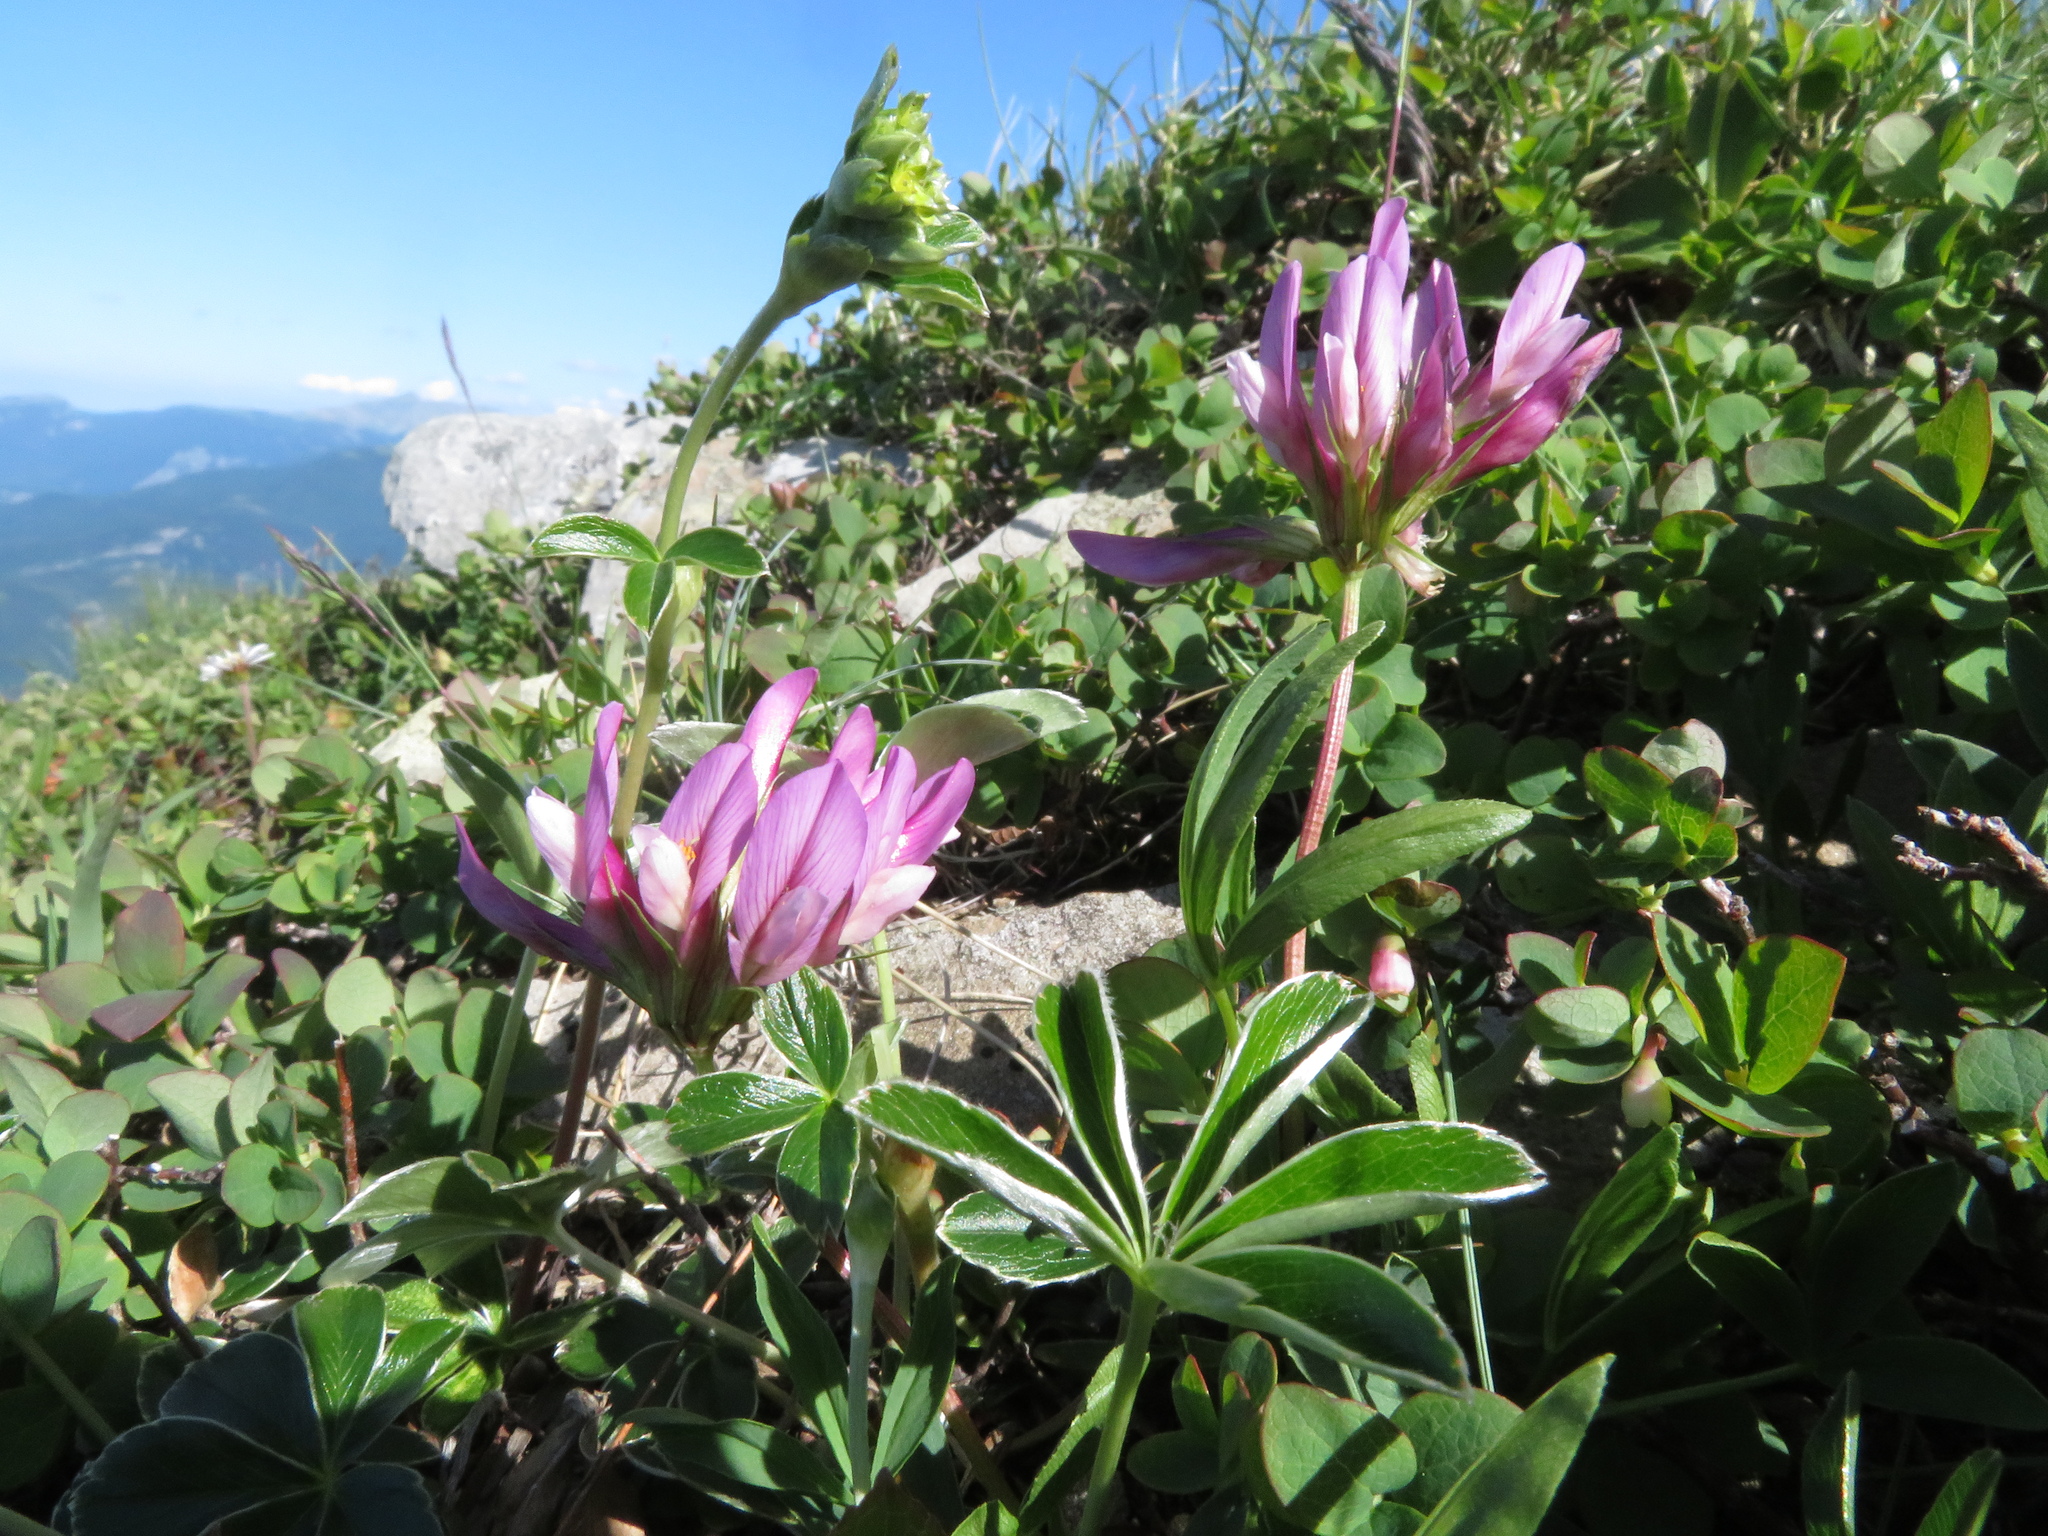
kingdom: Plantae
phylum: Tracheophyta
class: Magnoliopsida
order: Fabales
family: Fabaceae
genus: Trifolium
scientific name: Trifolium alpinum
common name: Alpine clover
